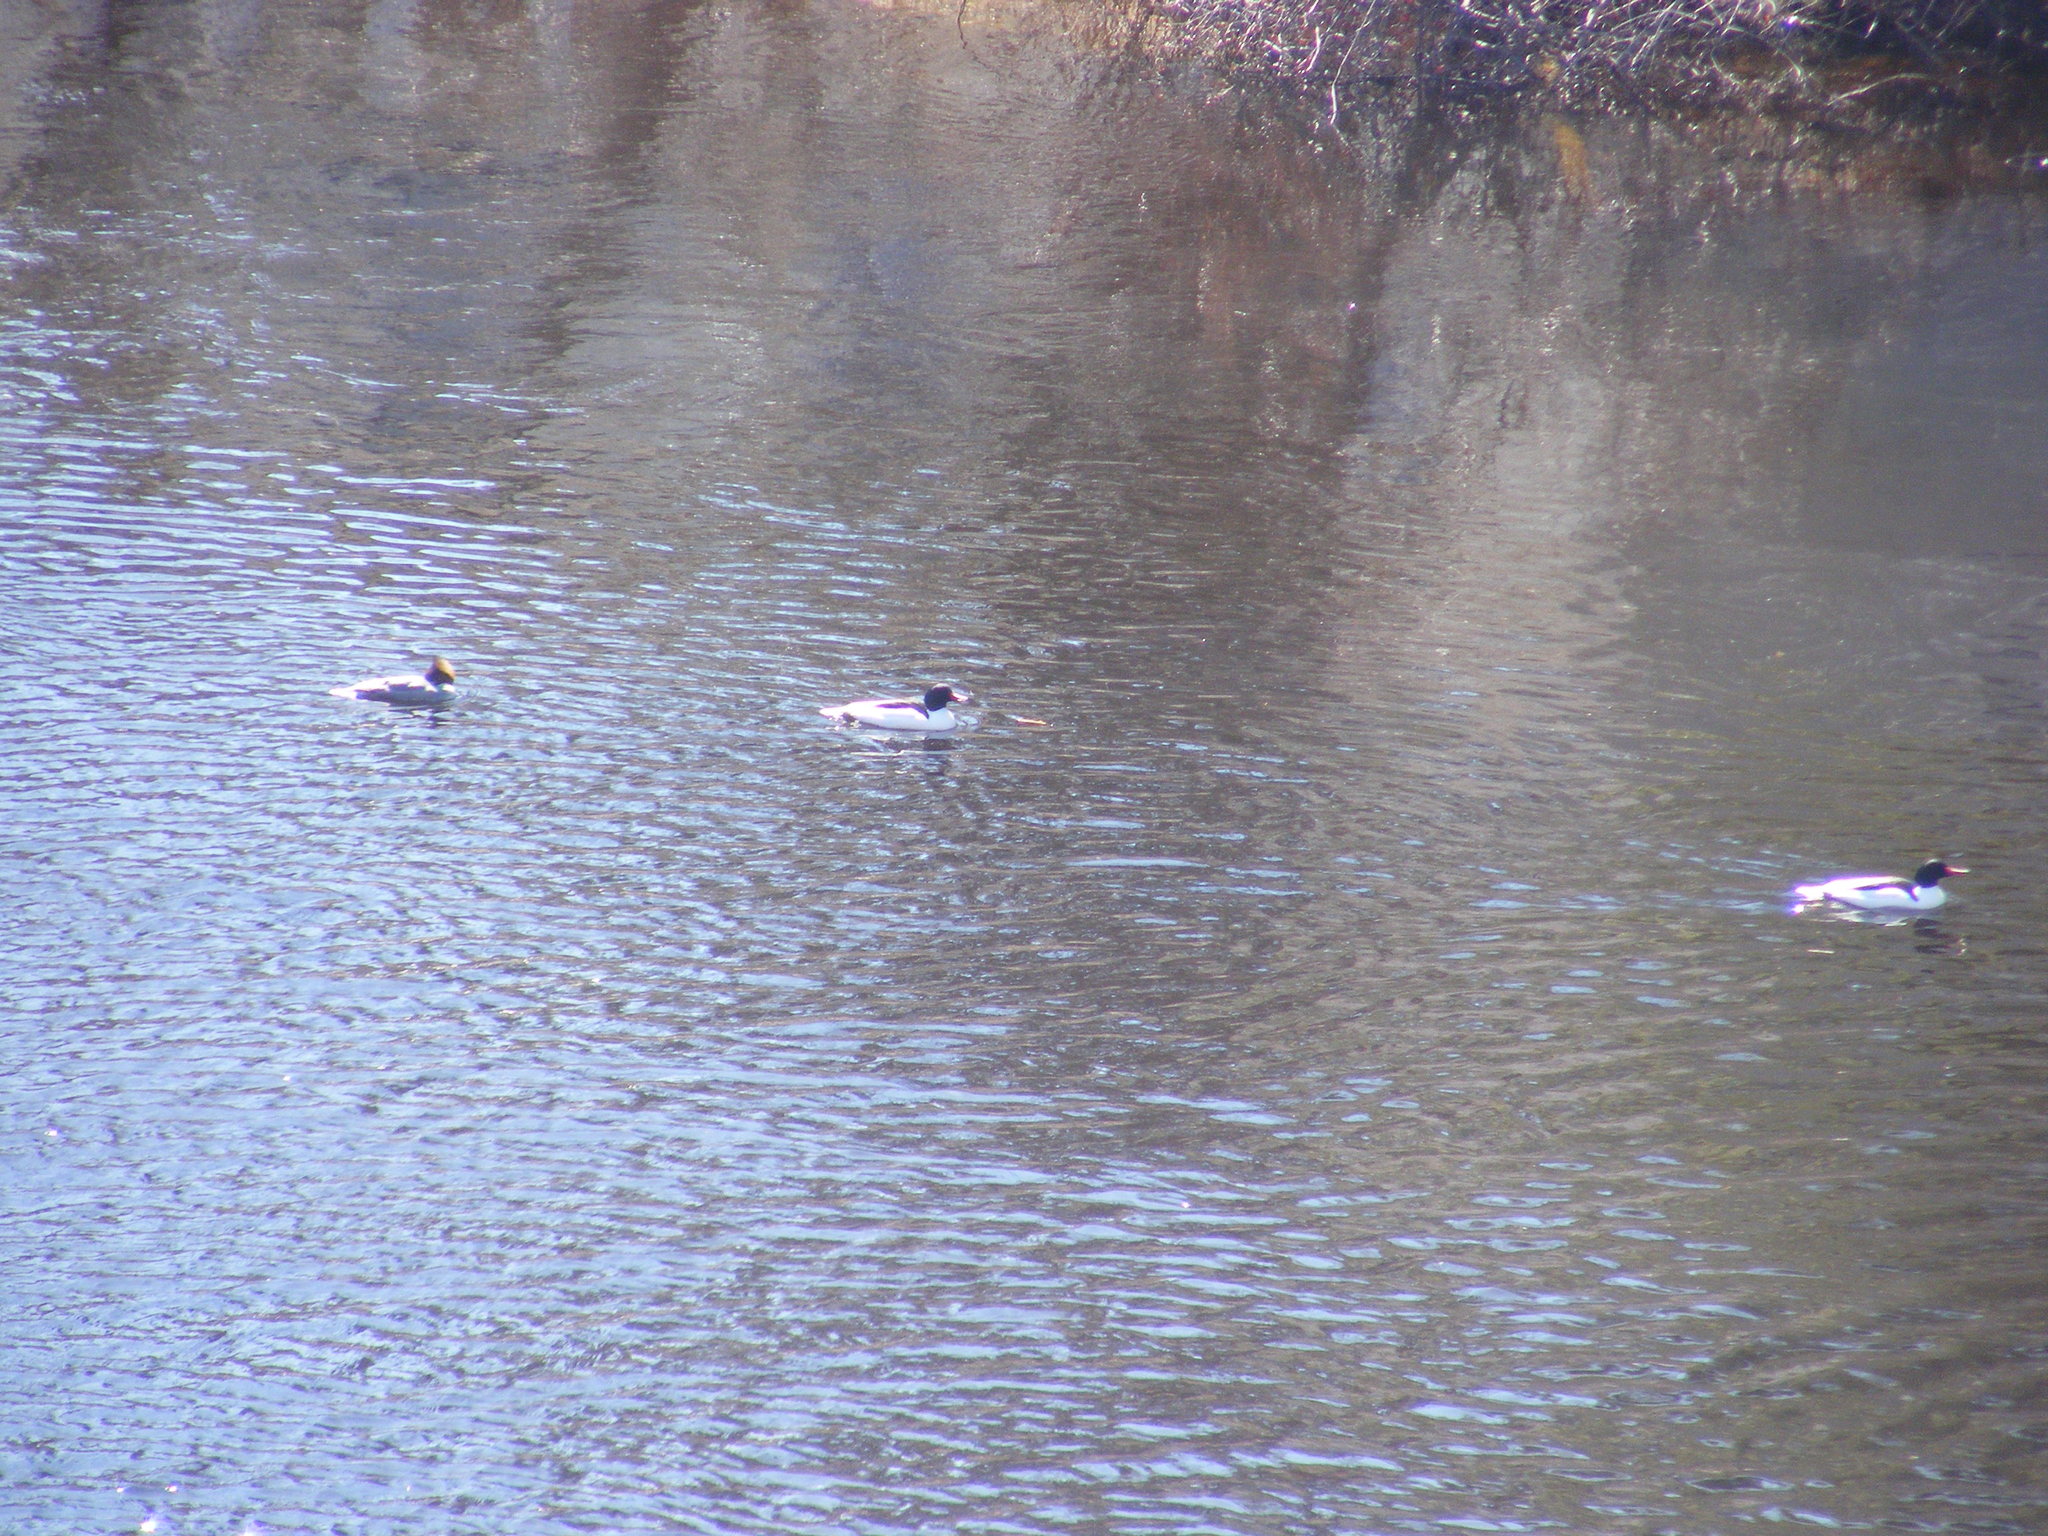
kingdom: Animalia
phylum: Chordata
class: Aves
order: Anseriformes
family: Anatidae
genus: Mergus
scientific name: Mergus merganser
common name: Common merganser
